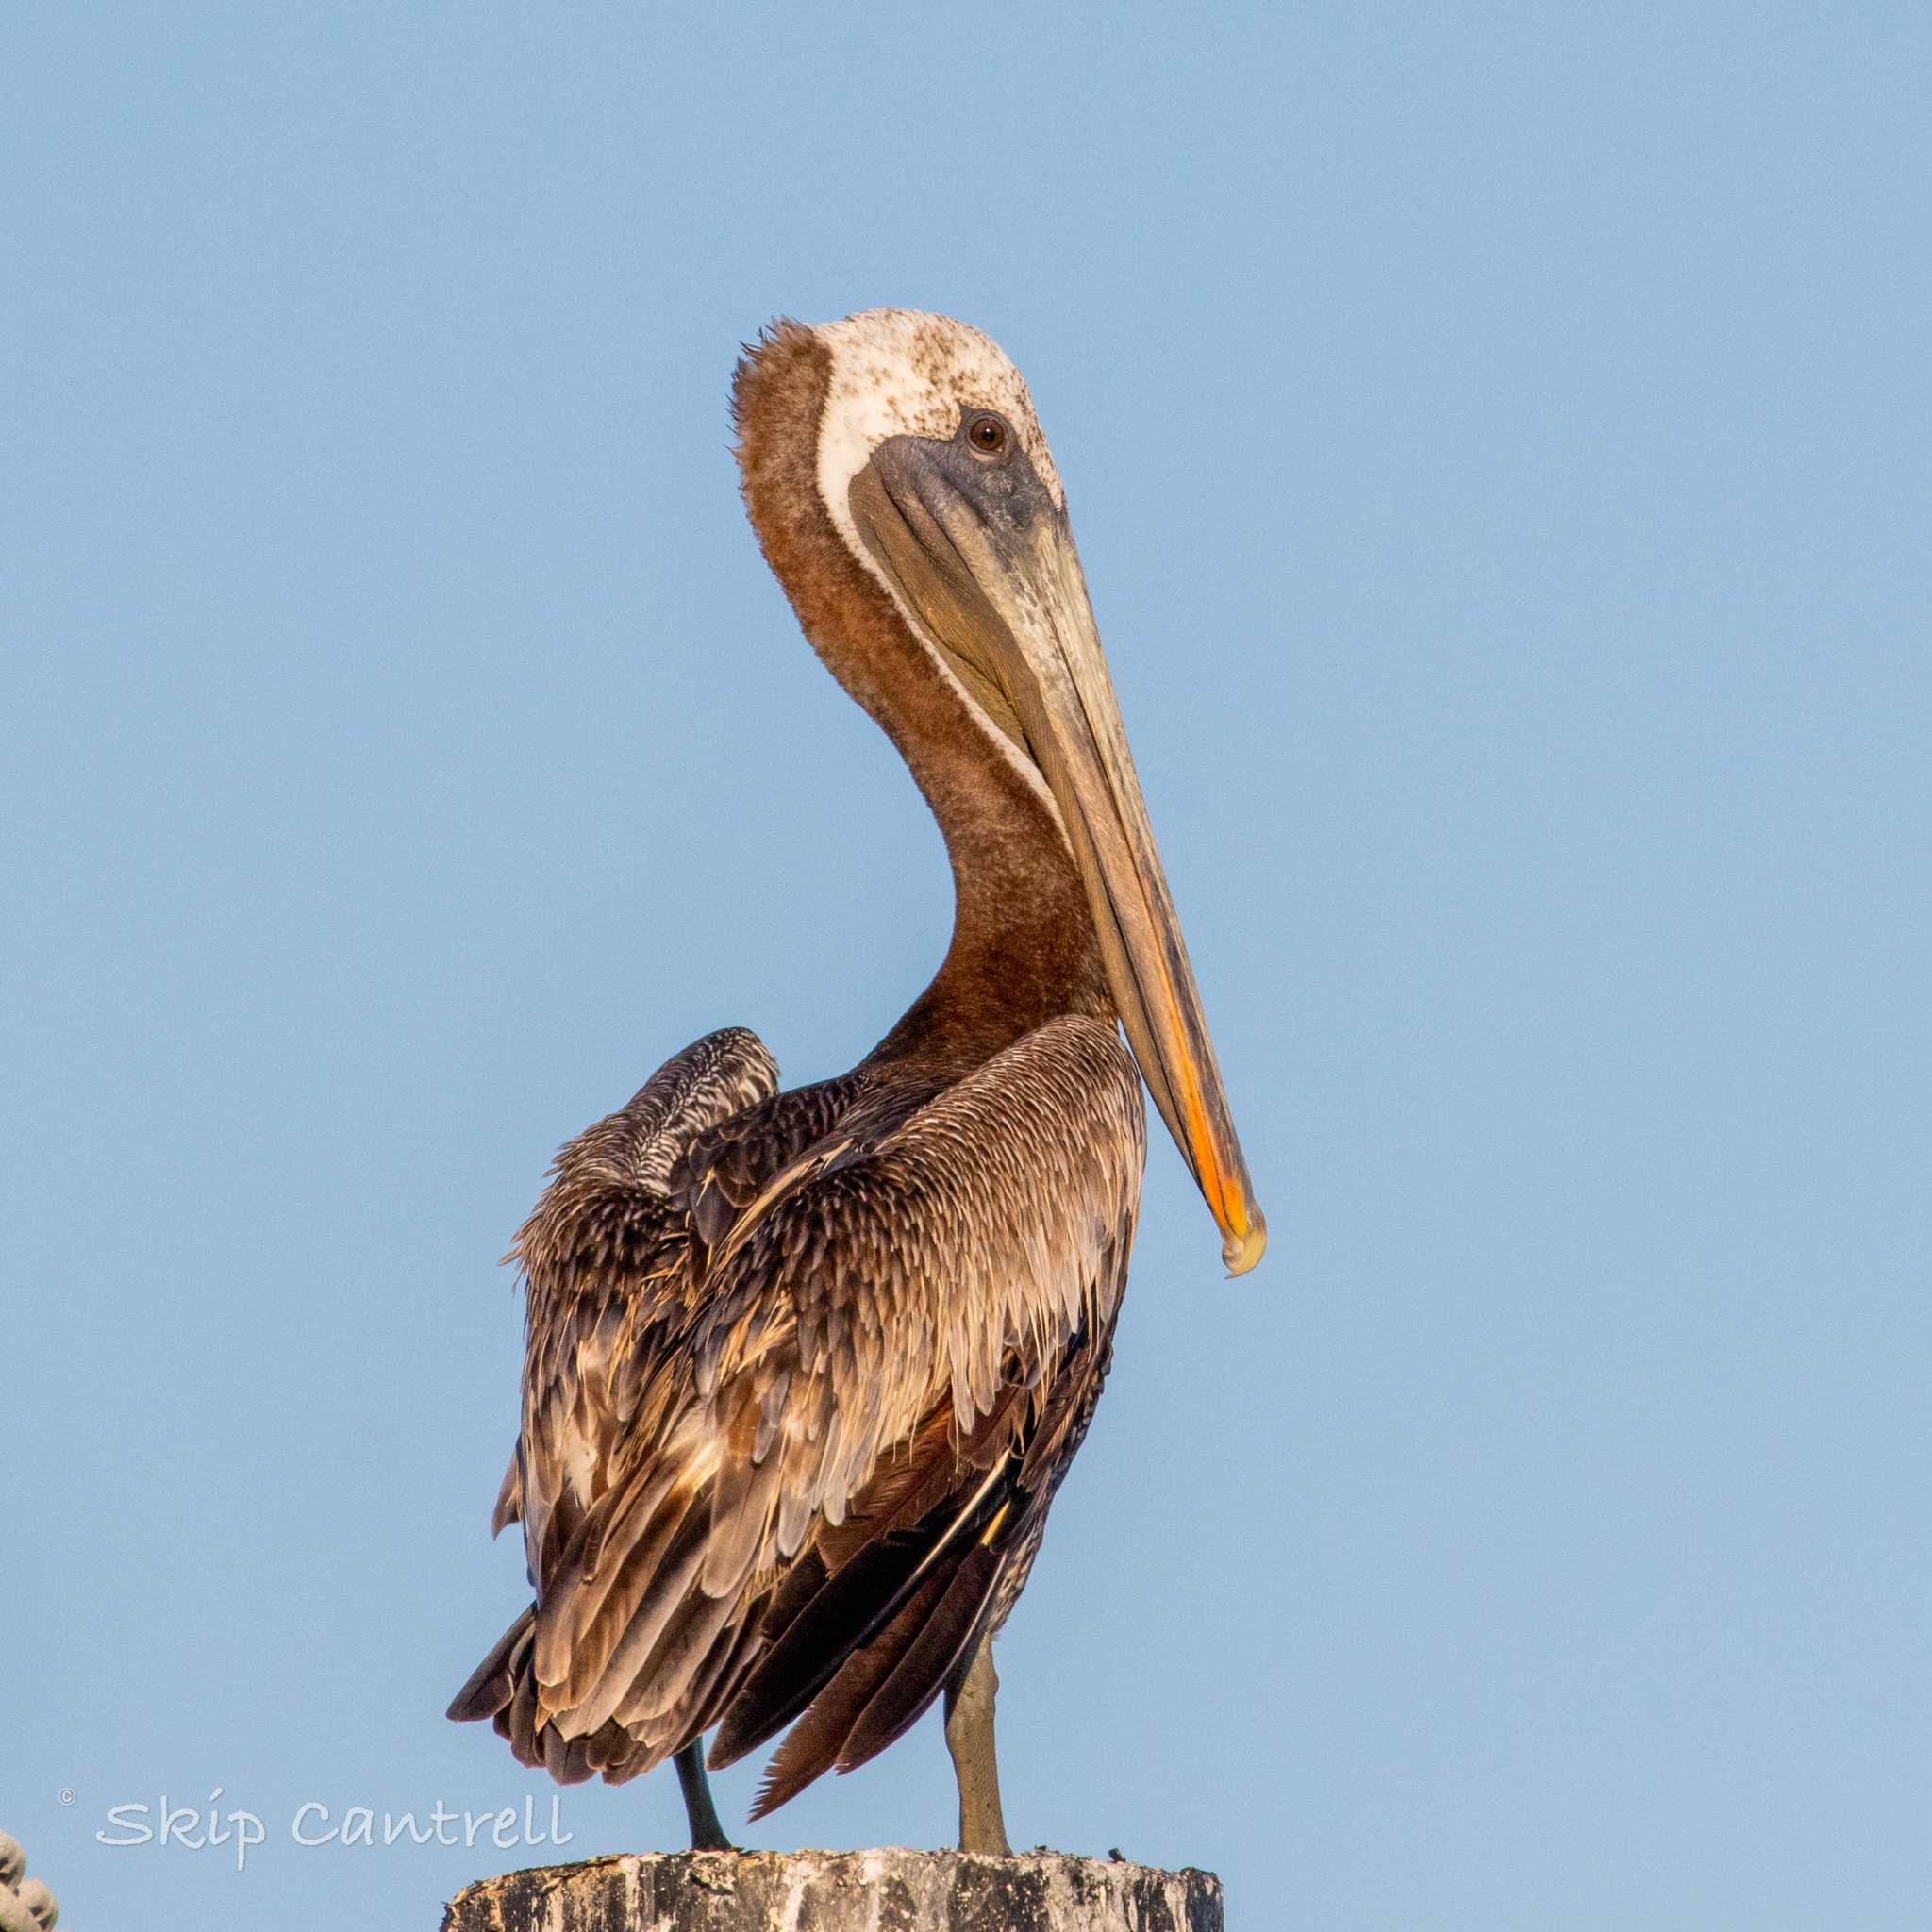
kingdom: Animalia
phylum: Chordata
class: Aves
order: Pelecaniformes
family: Pelecanidae
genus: Pelecanus
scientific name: Pelecanus occidentalis
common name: Brown pelican
